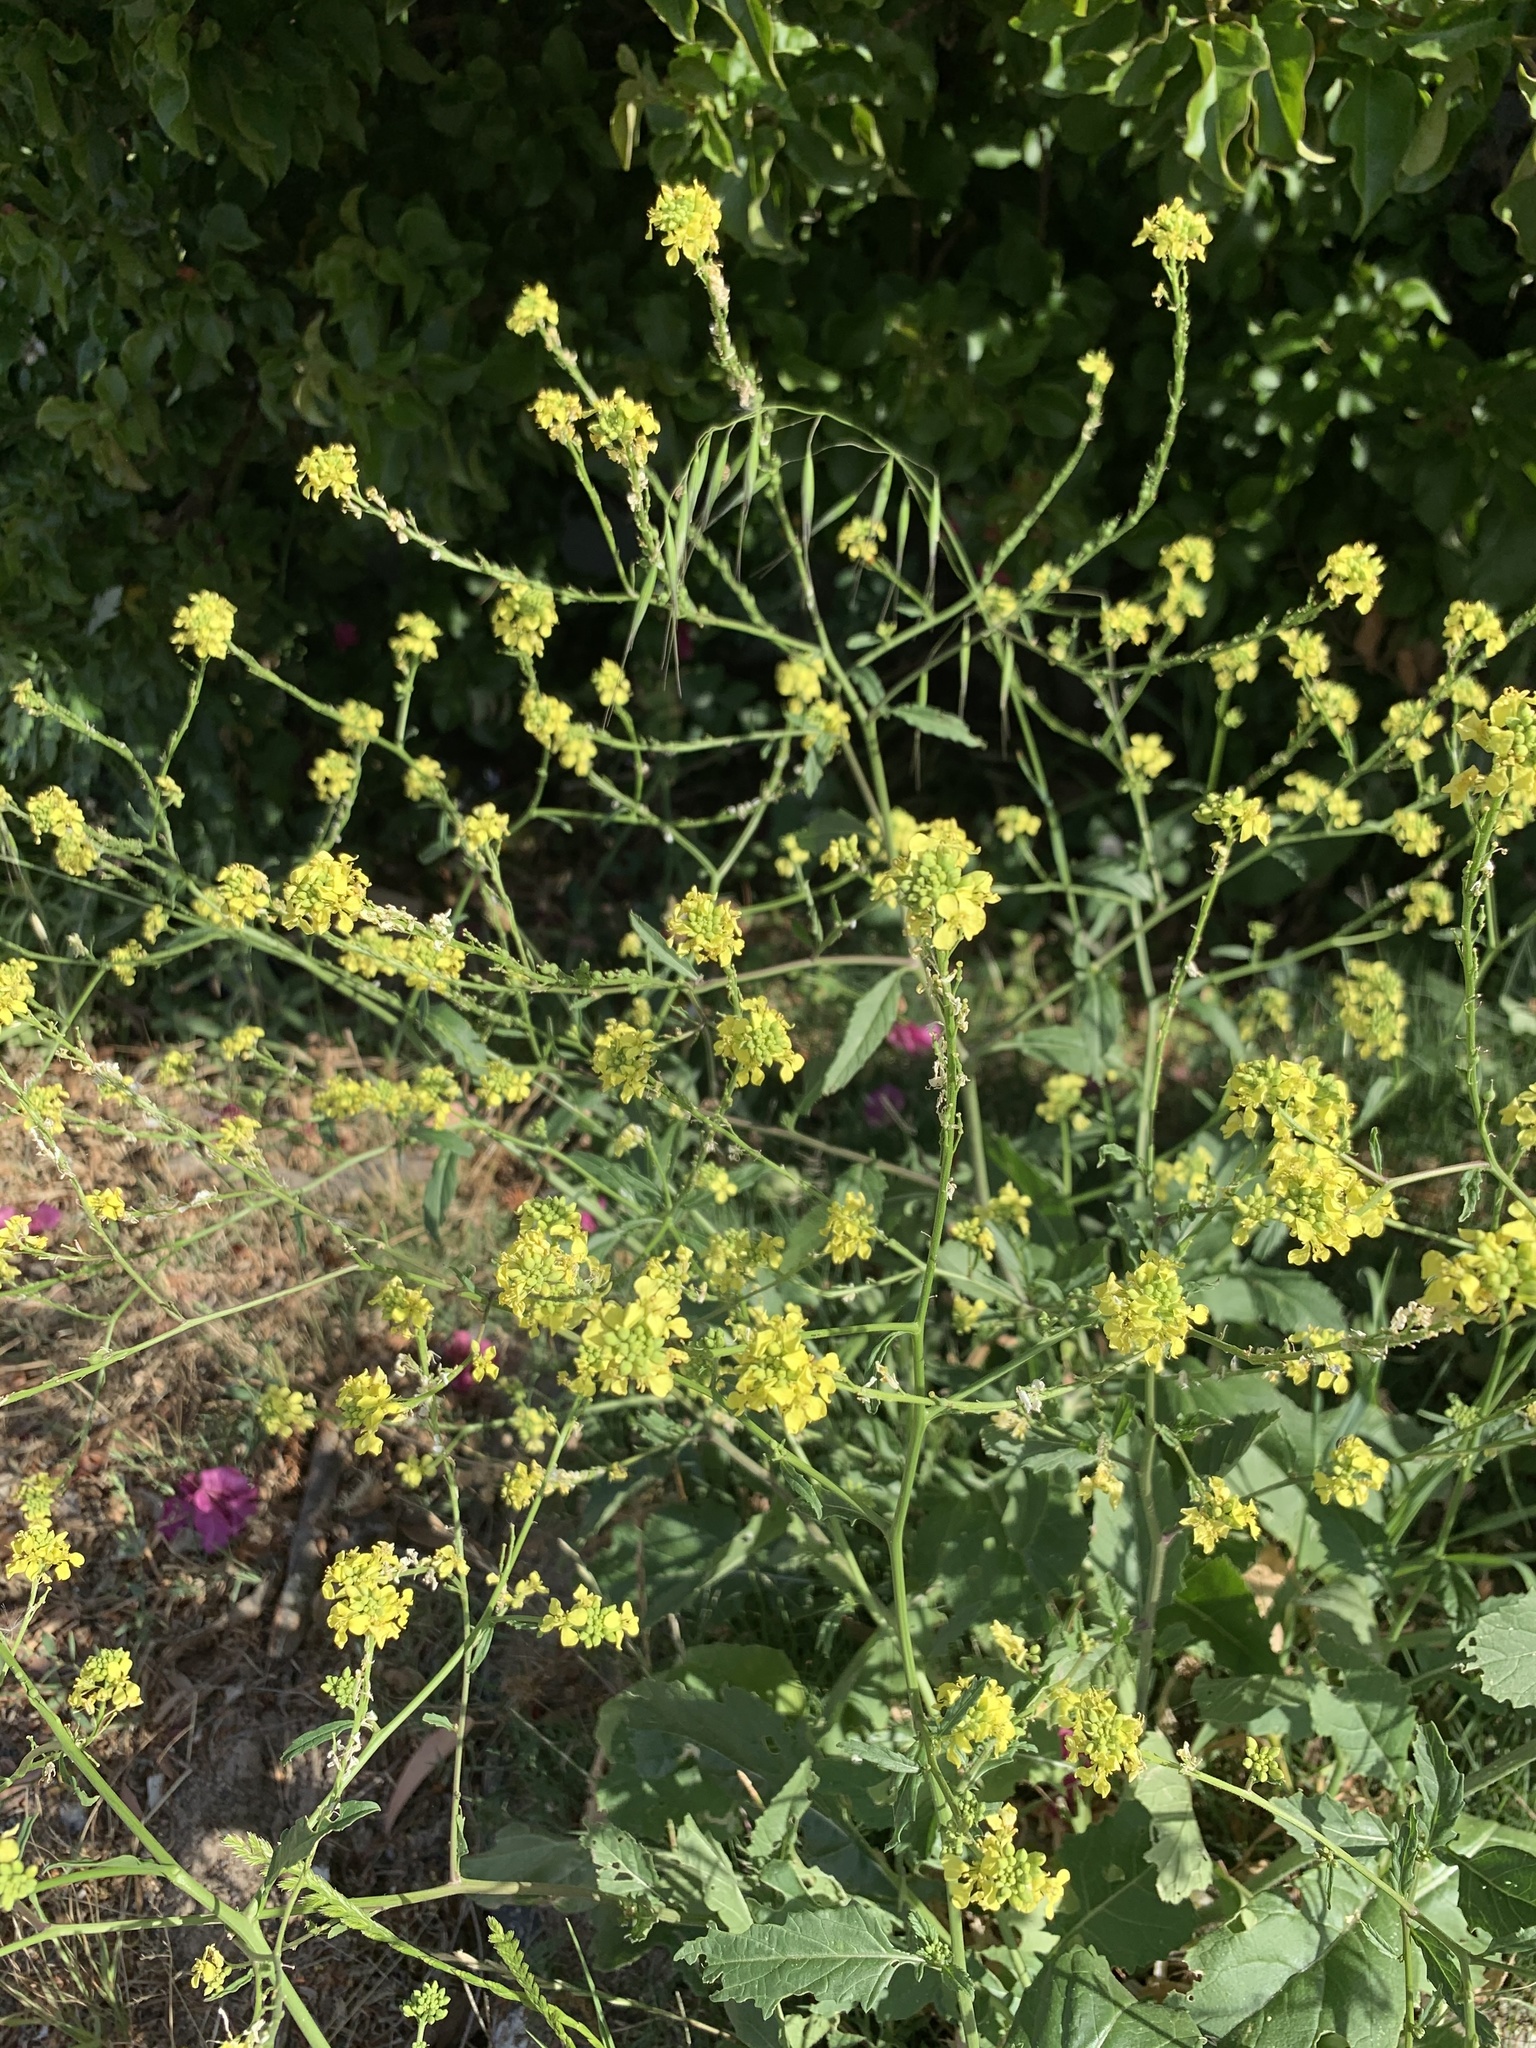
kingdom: Plantae
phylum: Tracheophyta
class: Magnoliopsida
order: Brassicales
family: Brassicaceae
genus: Rapistrum
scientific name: Rapistrum rugosum
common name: Annual bastardcabbage
